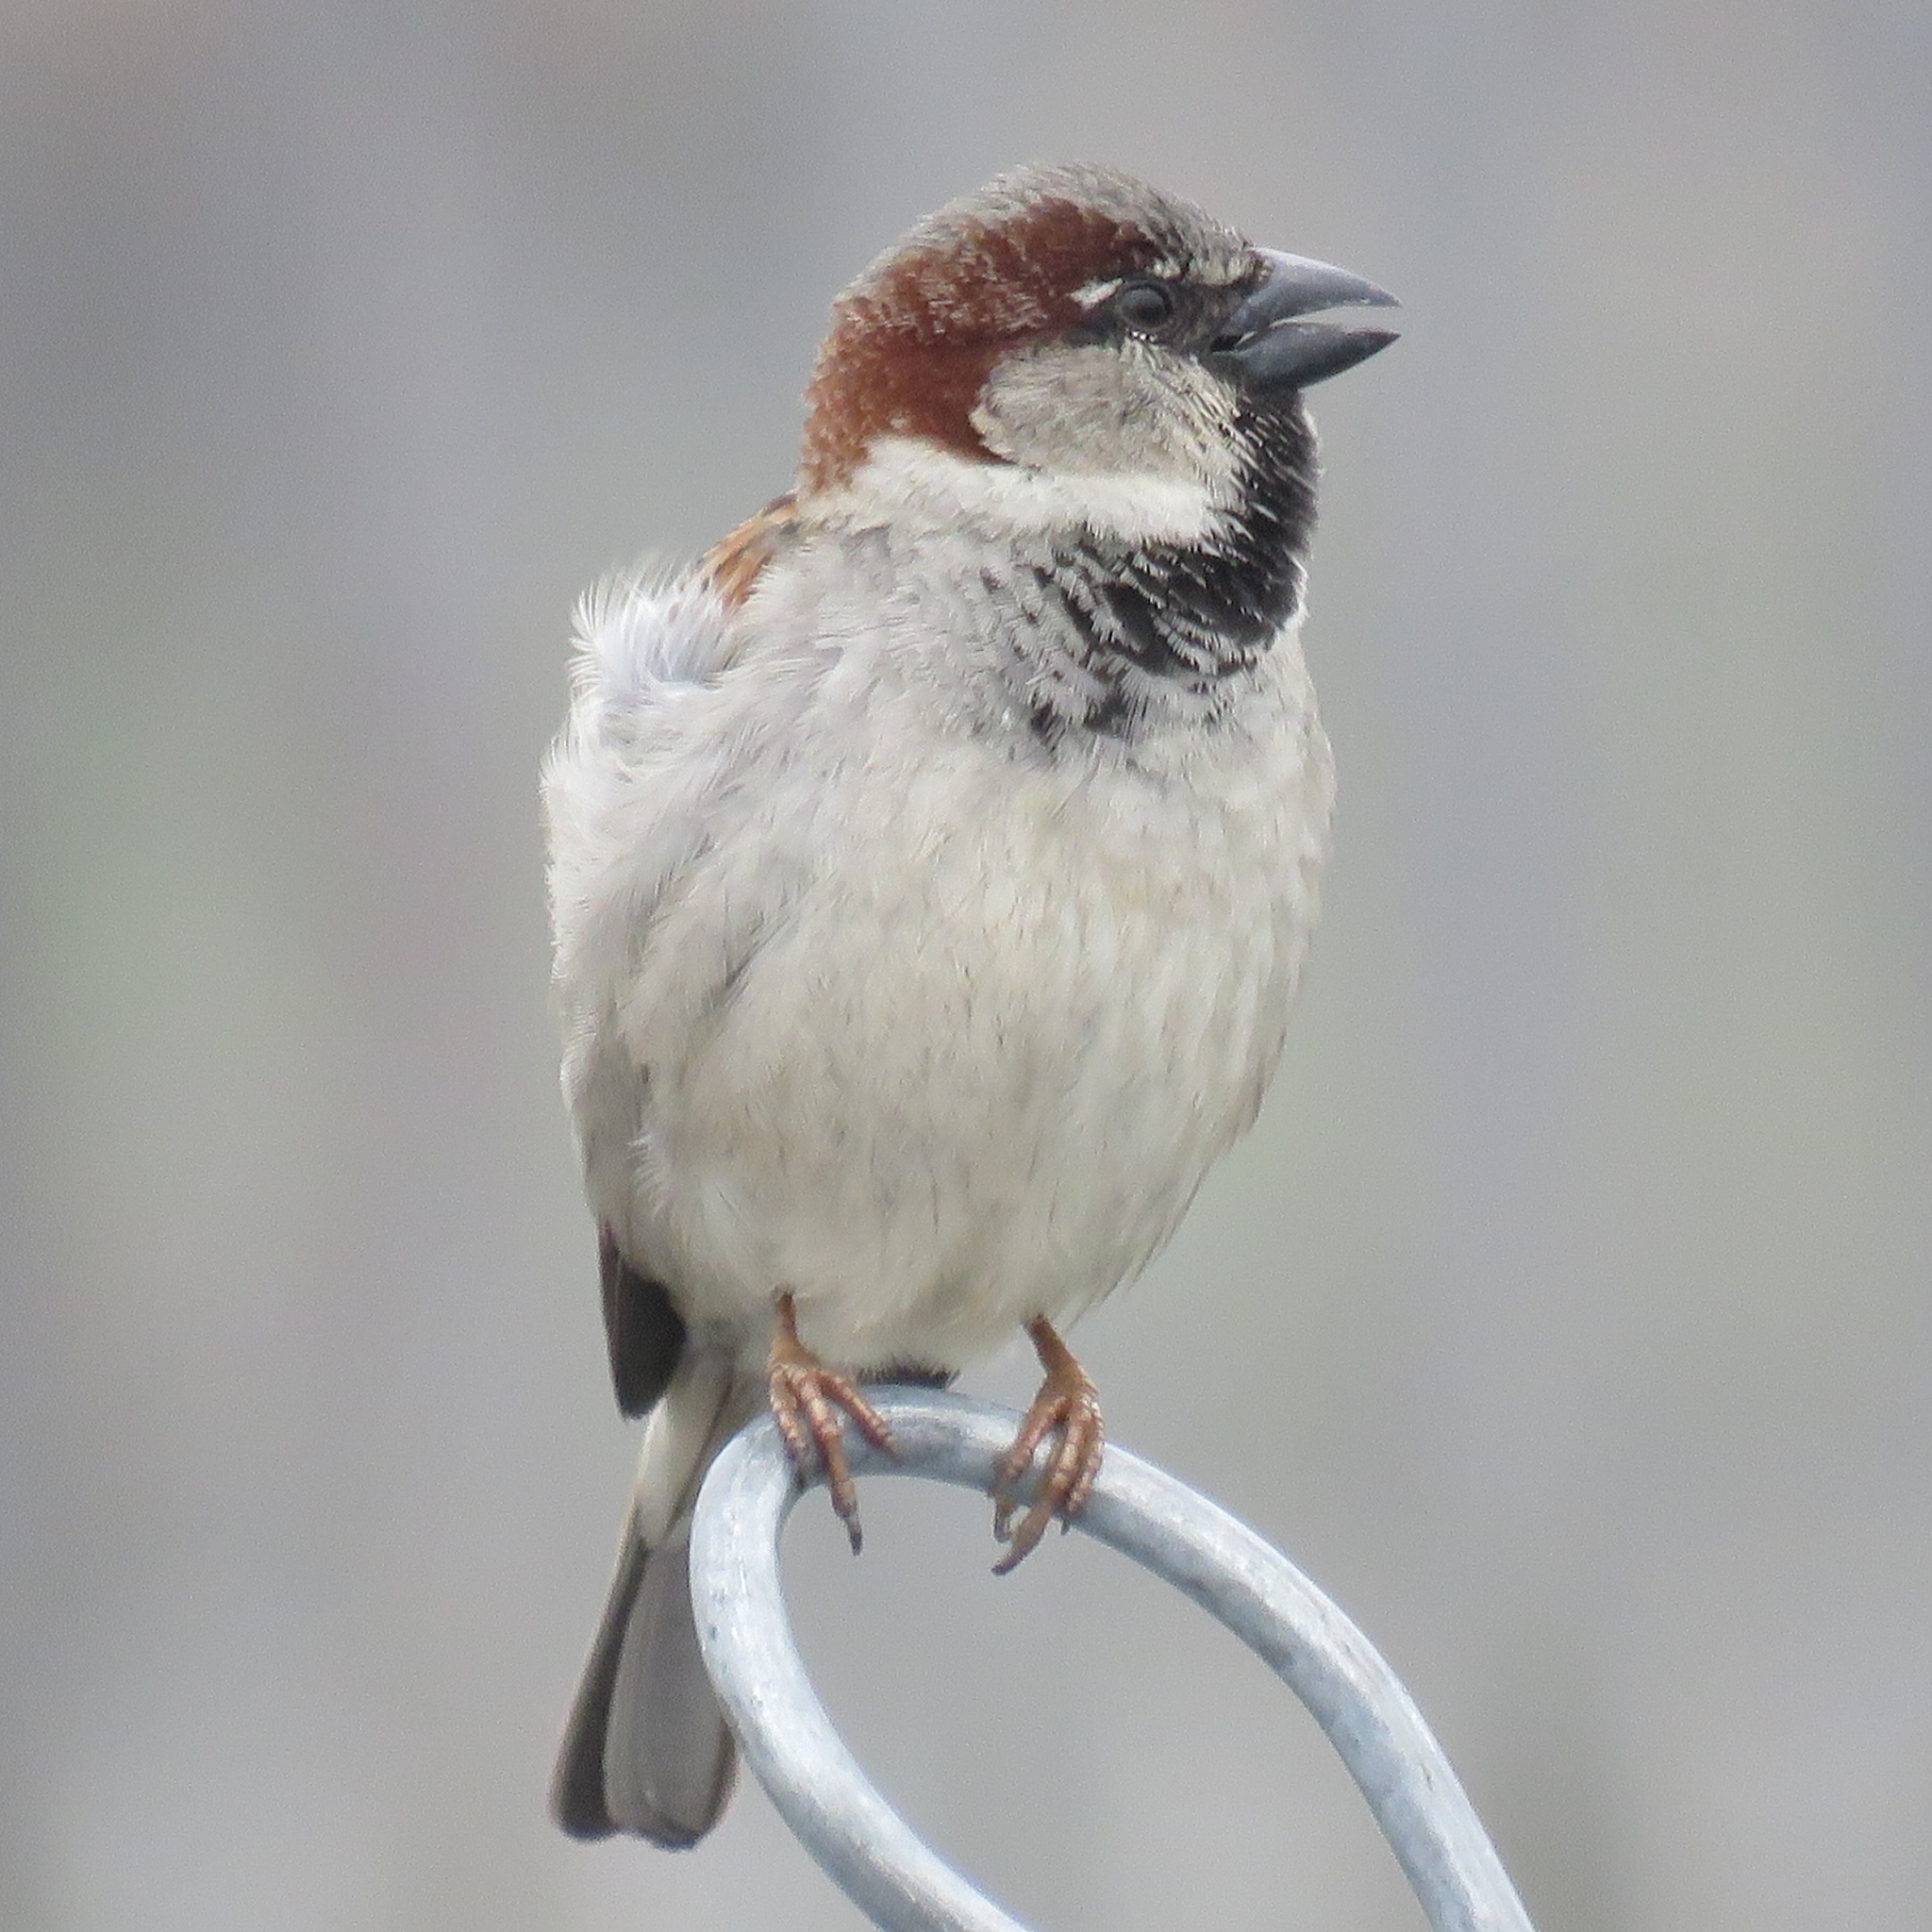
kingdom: Animalia
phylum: Chordata
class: Aves
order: Passeriformes
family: Passeridae
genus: Passer
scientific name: Passer domesticus
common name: House sparrow
